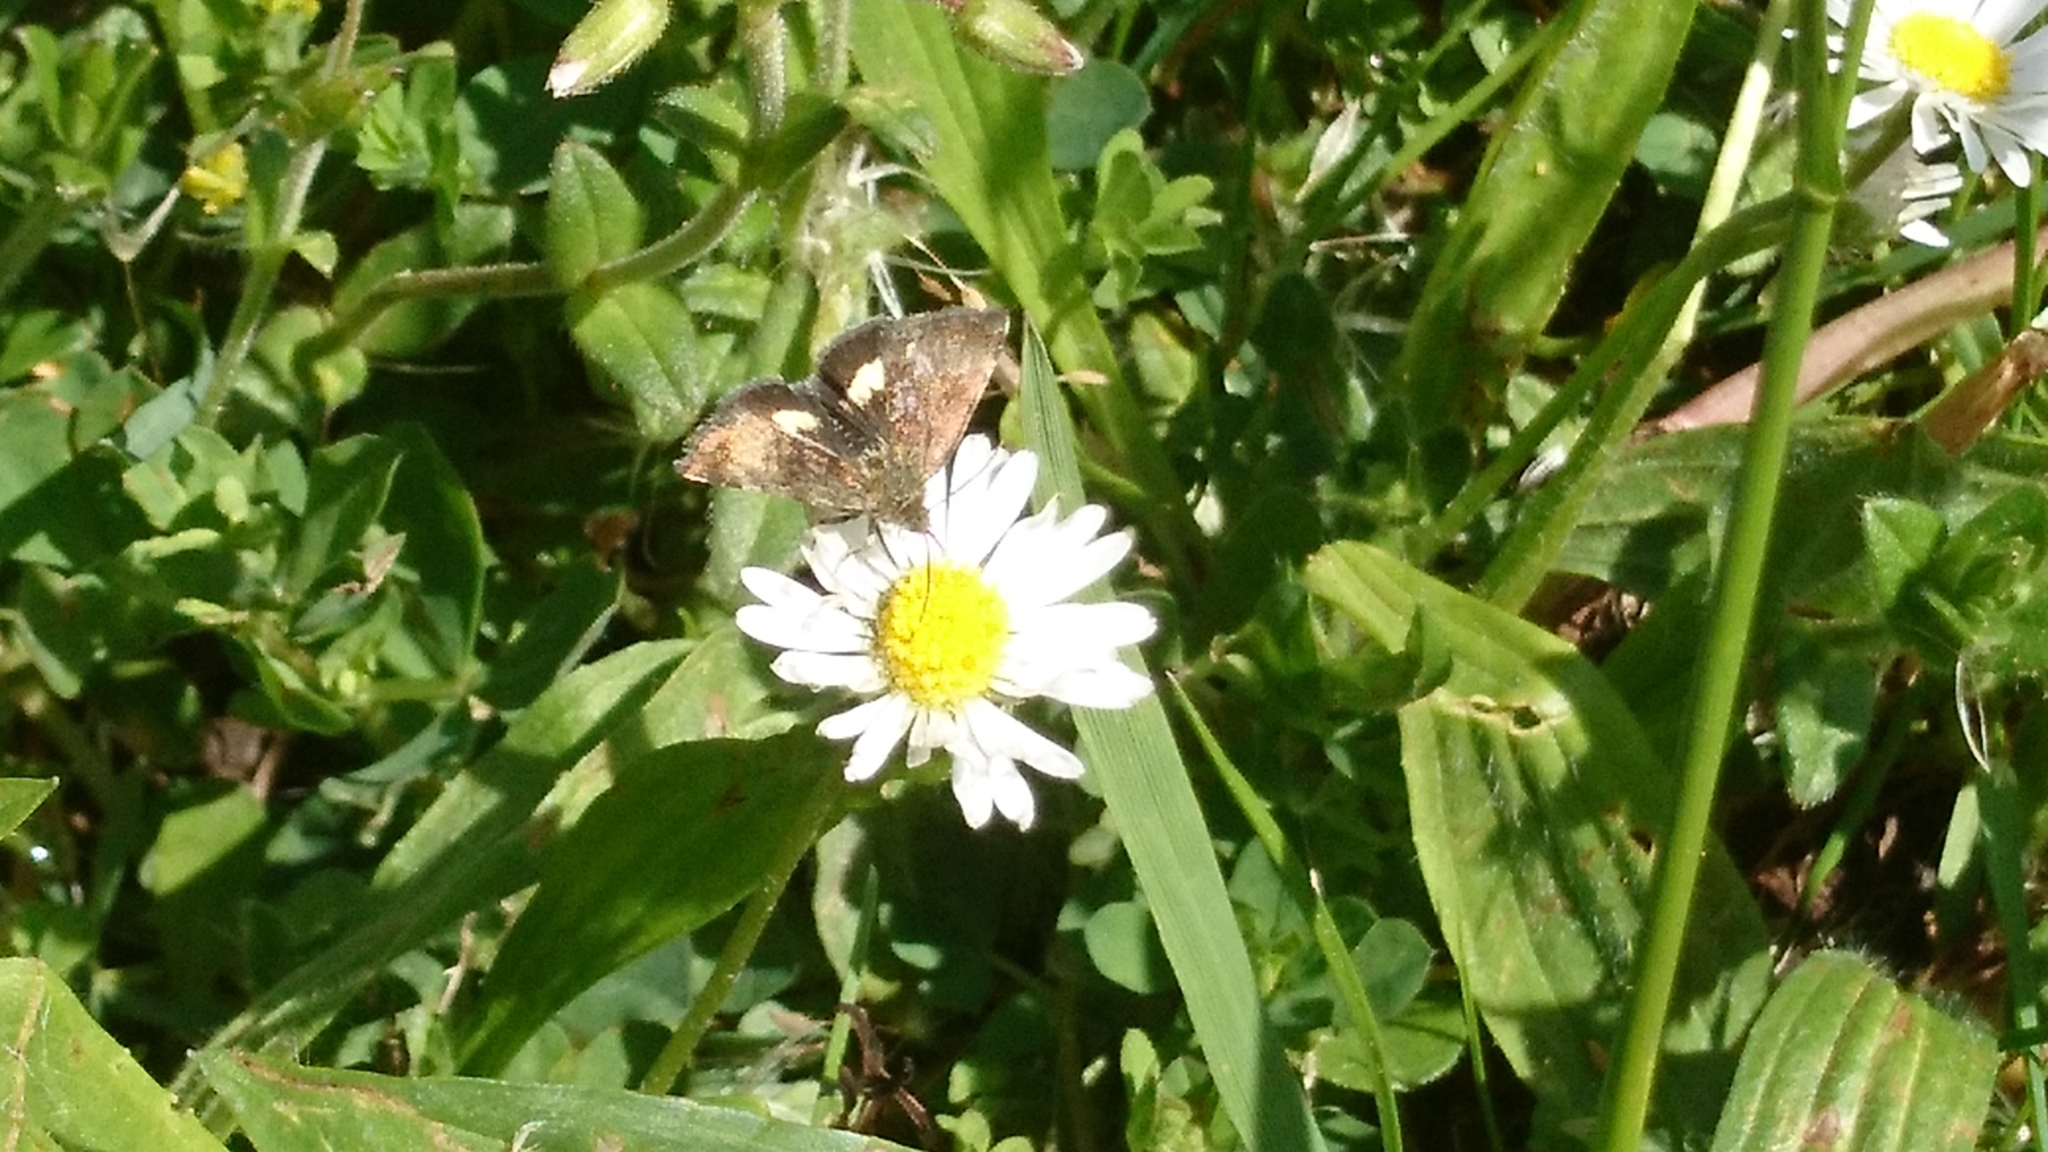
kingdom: Animalia
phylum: Arthropoda
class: Insecta
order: Lepidoptera
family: Noctuidae
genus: Panemeria
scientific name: Panemeria tenebrata
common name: Small yellow underwing
